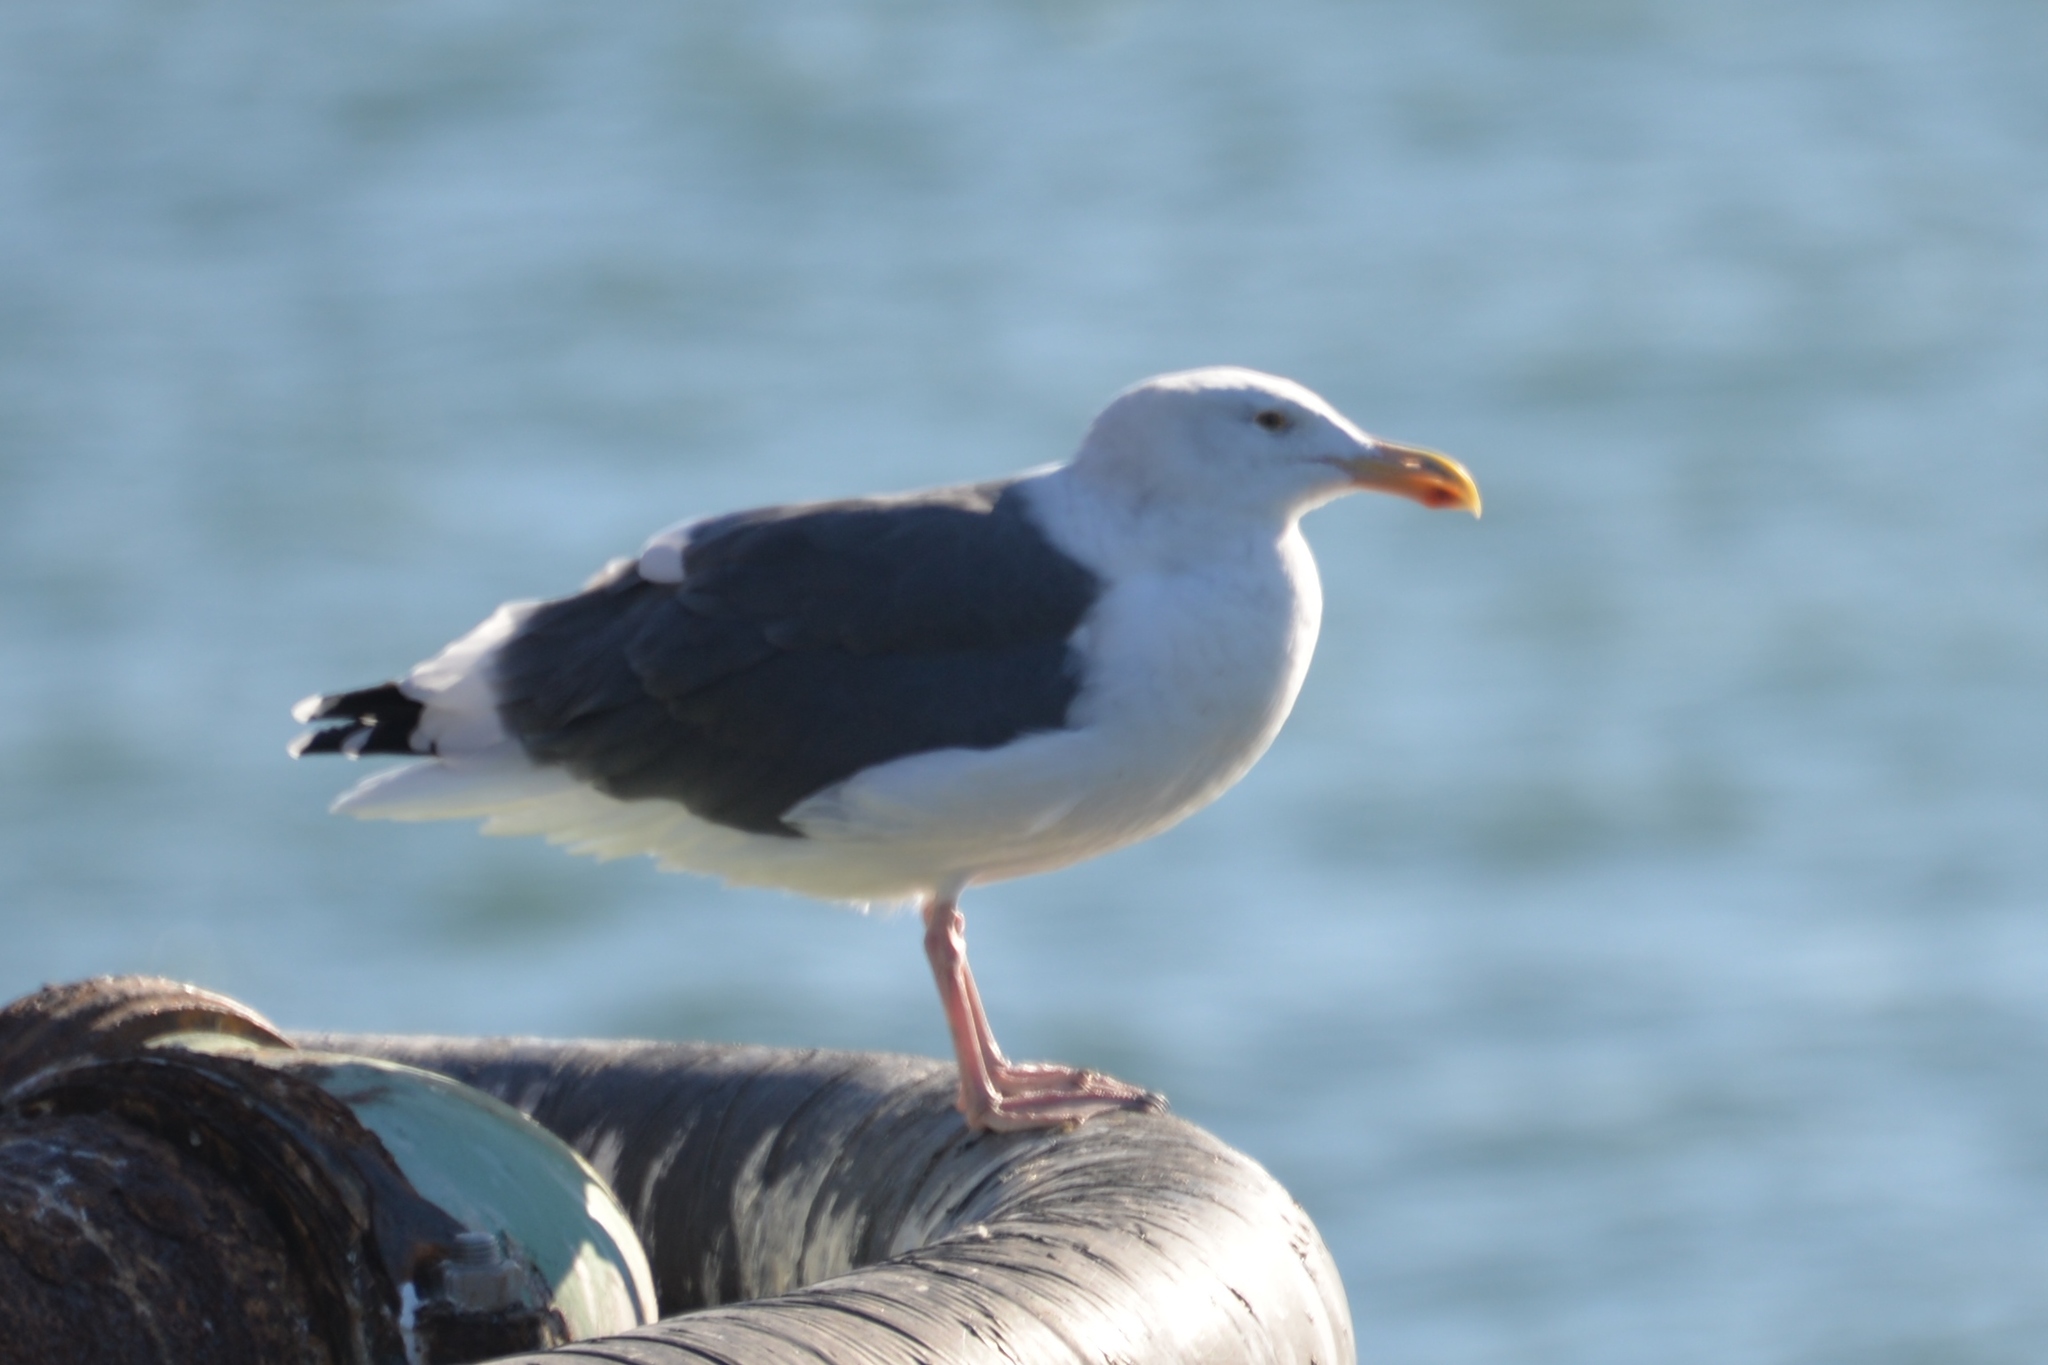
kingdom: Animalia
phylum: Chordata
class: Aves
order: Charadriiformes
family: Laridae
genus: Larus
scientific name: Larus occidentalis
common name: Western gull
